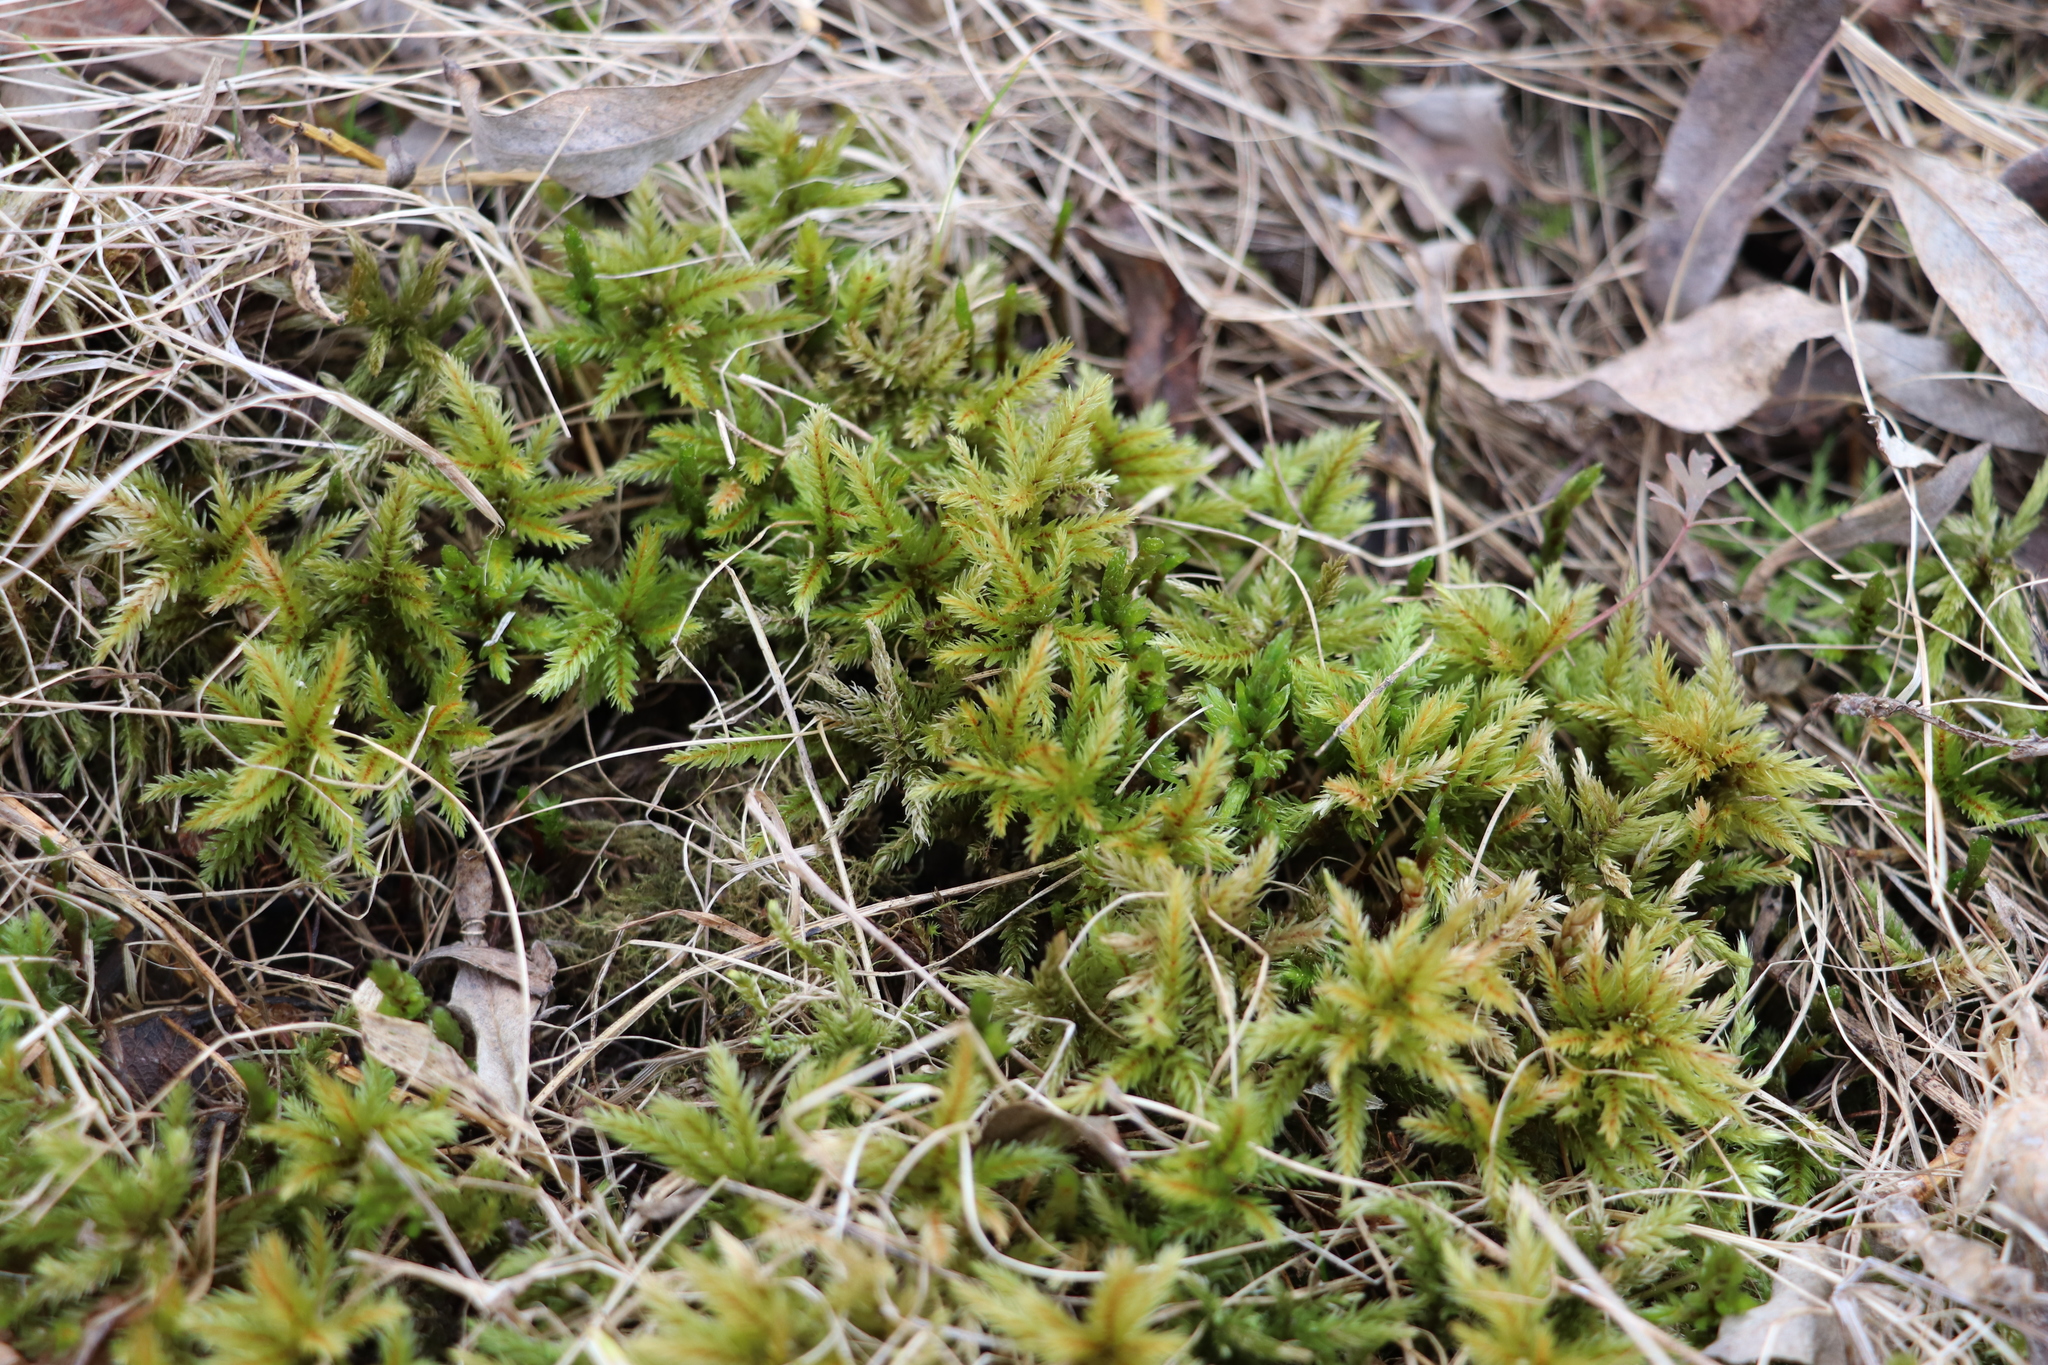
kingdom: Plantae
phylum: Bryophyta
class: Bryopsida
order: Hypnales
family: Climaciaceae
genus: Climacium
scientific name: Climacium dendroides
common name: Northern tree moss
